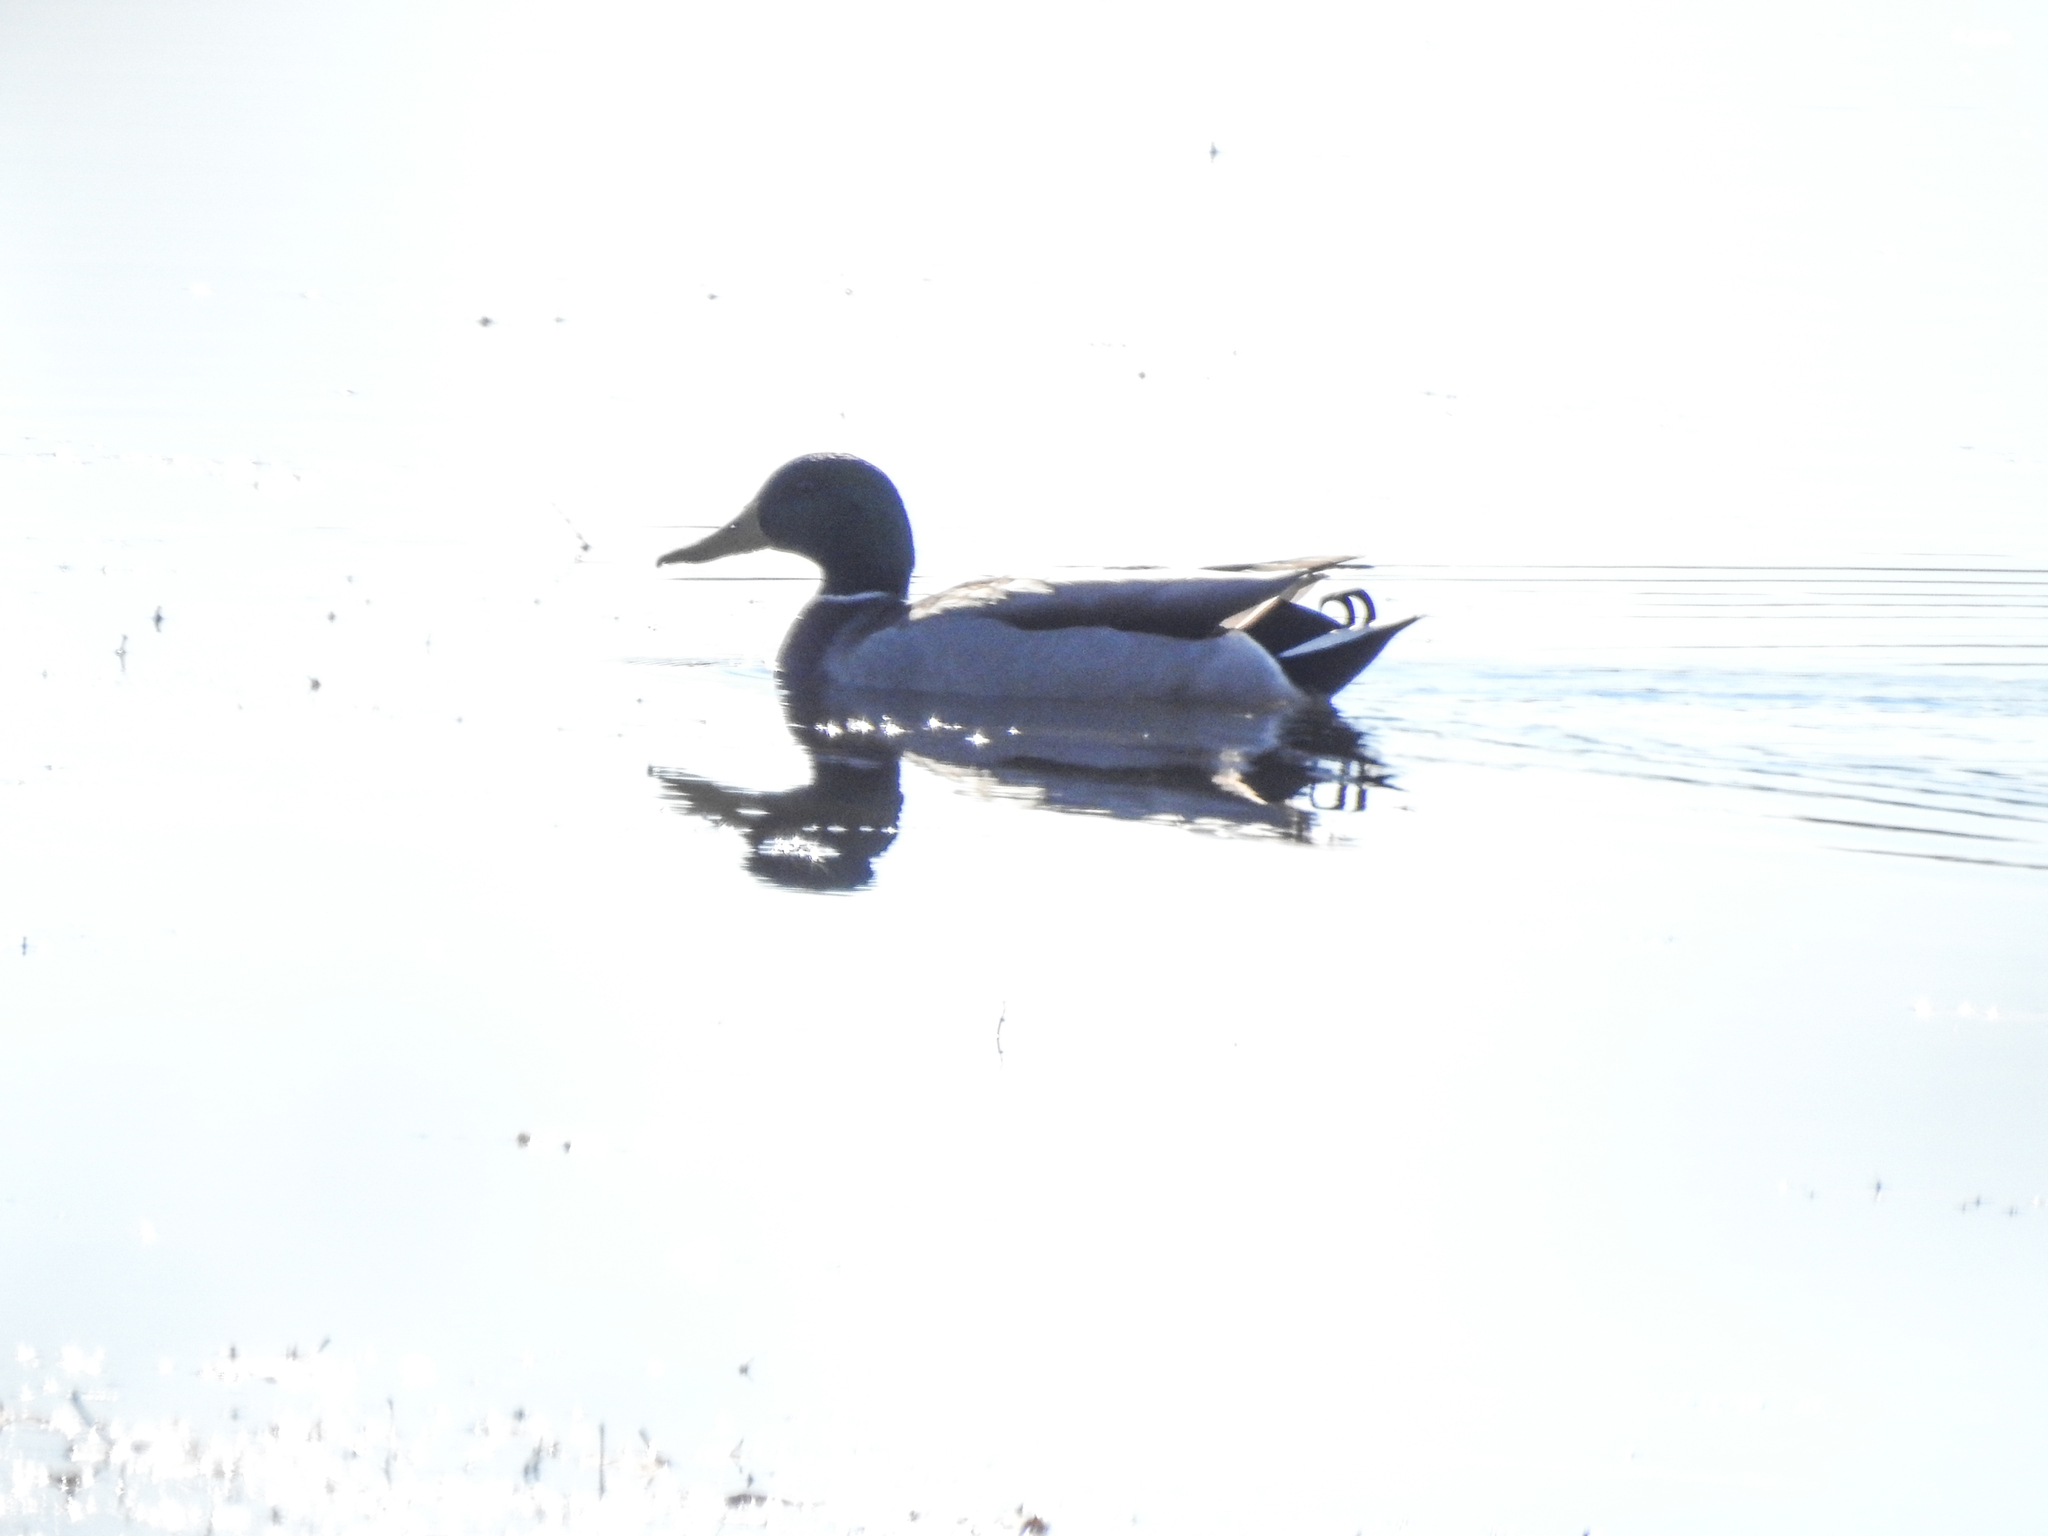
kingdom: Animalia
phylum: Chordata
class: Aves
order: Anseriformes
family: Anatidae
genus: Anas
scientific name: Anas platyrhynchos
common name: Mallard
